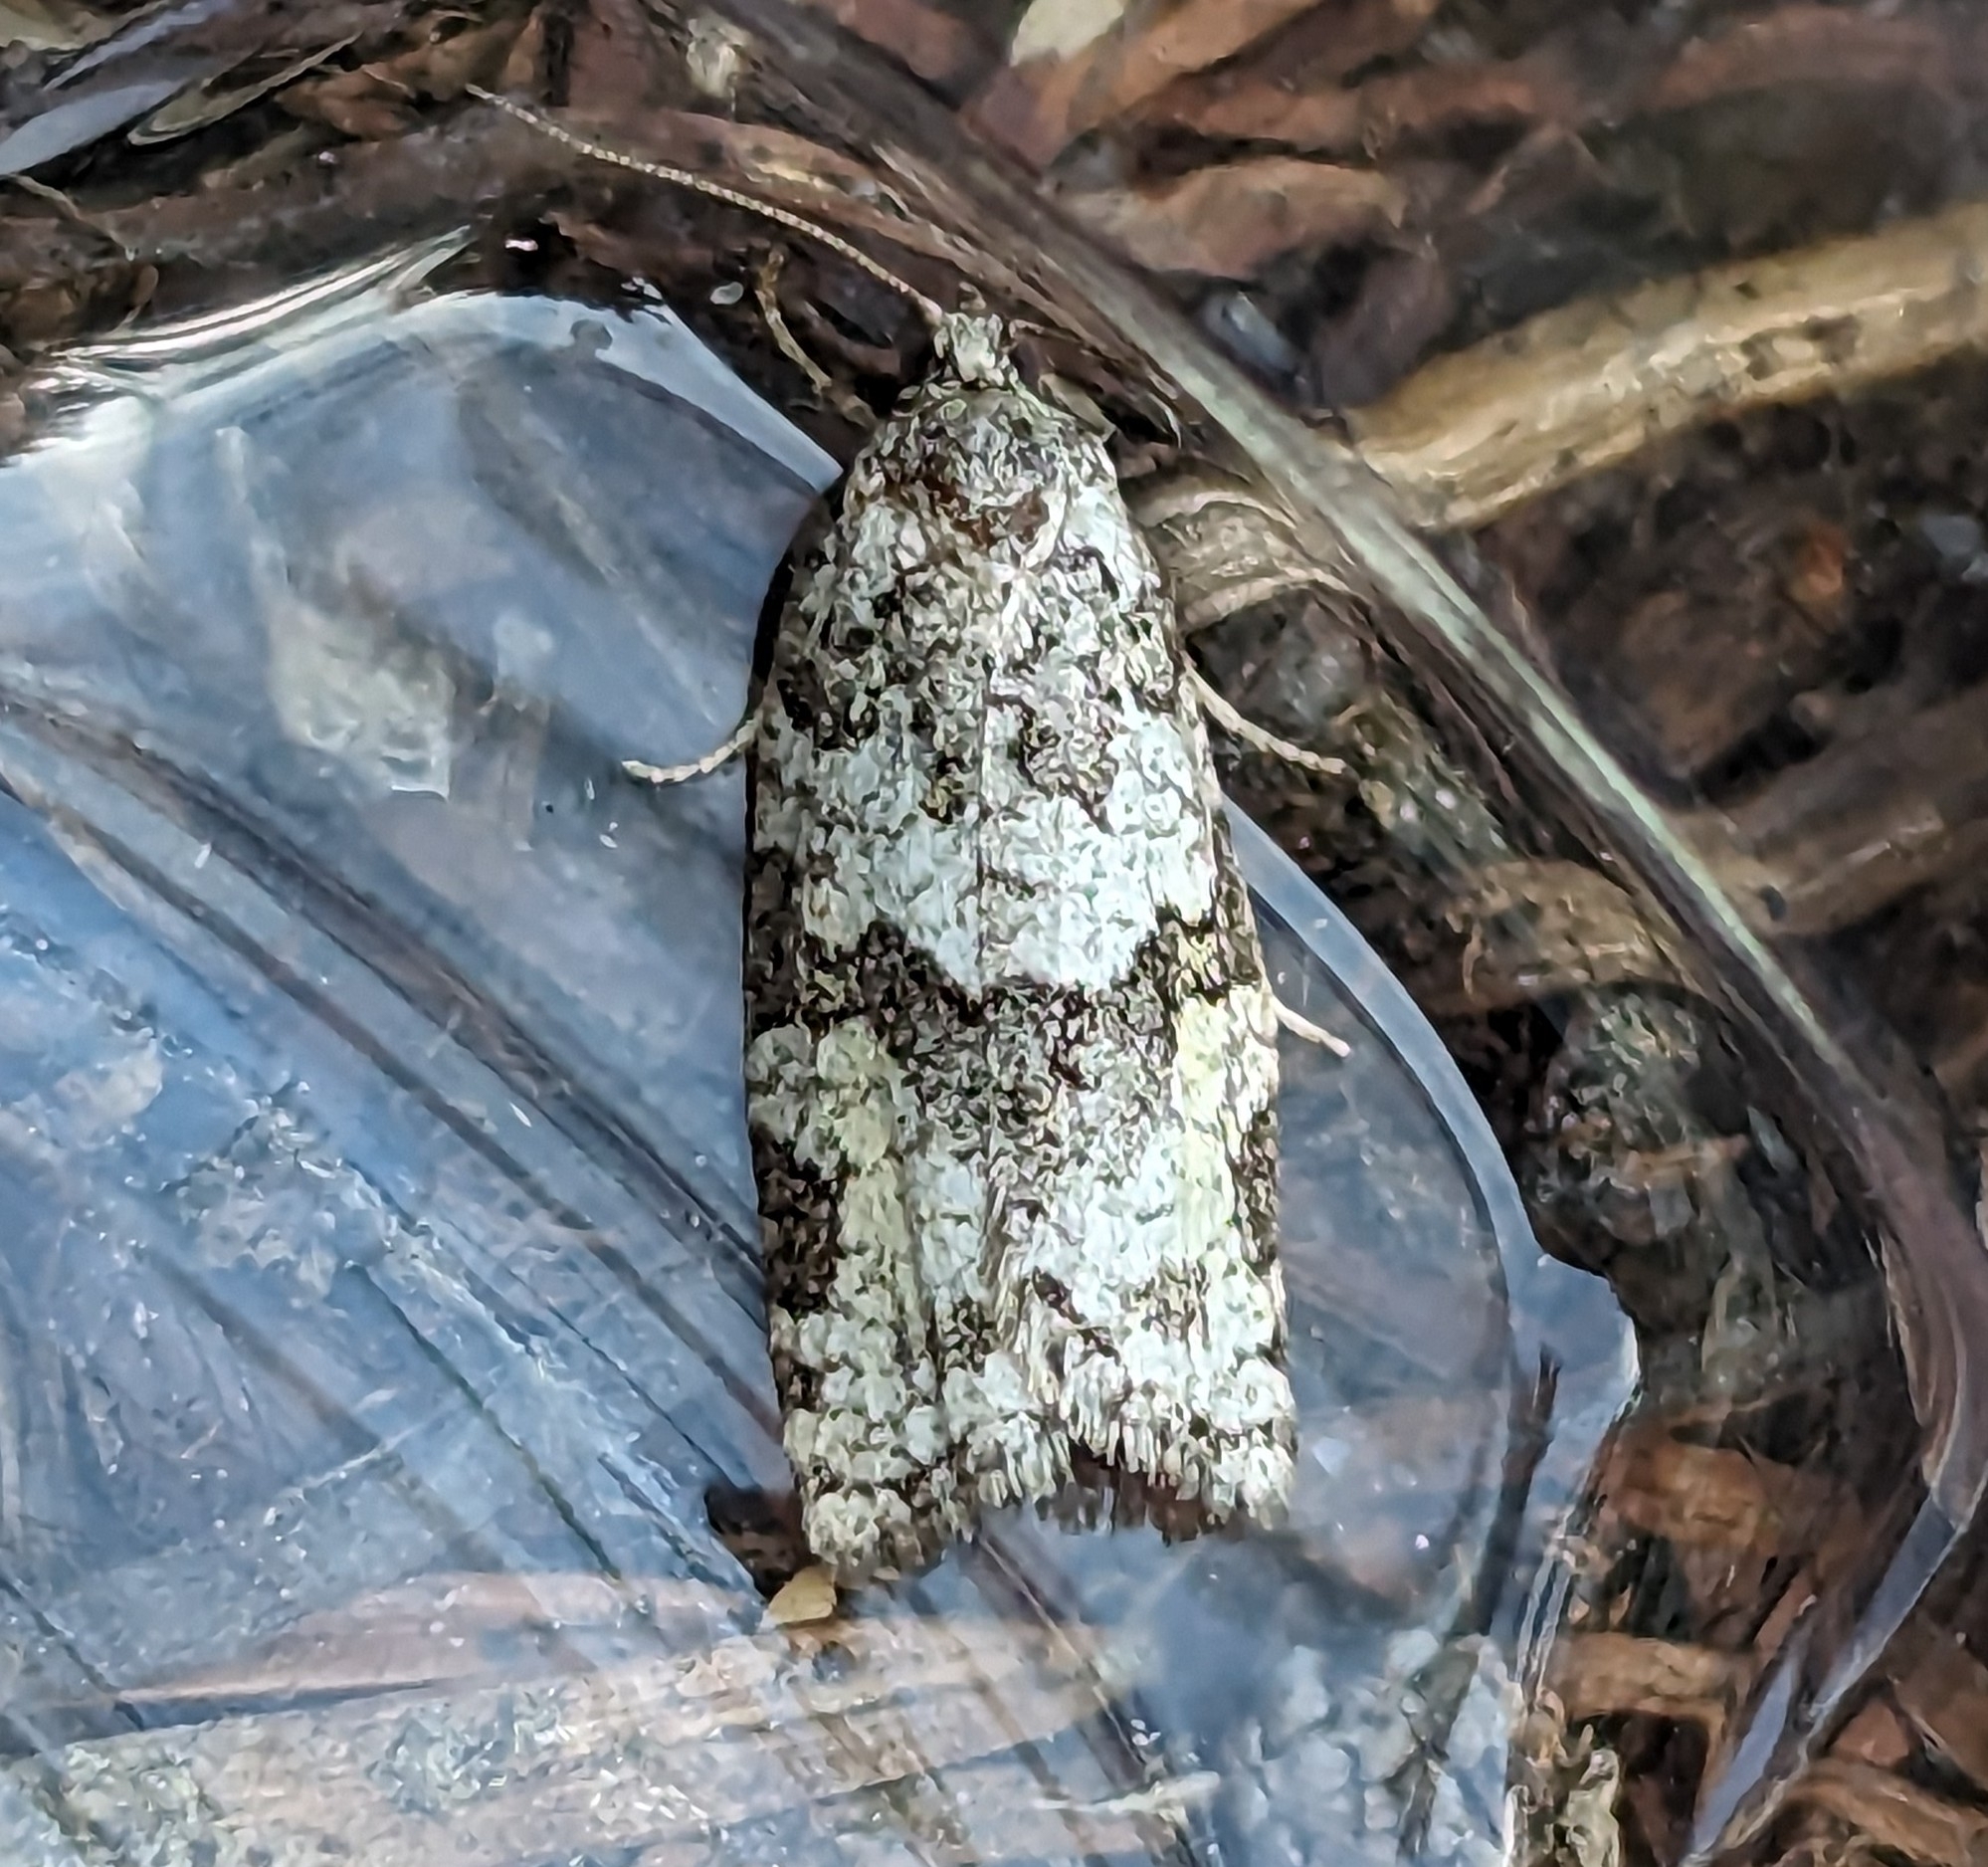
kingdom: Animalia
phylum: Arthropoda
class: Insecta
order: Lepidoptera
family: Tortricidae
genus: Argyrotaenia
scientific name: Argyrotaenia provana
